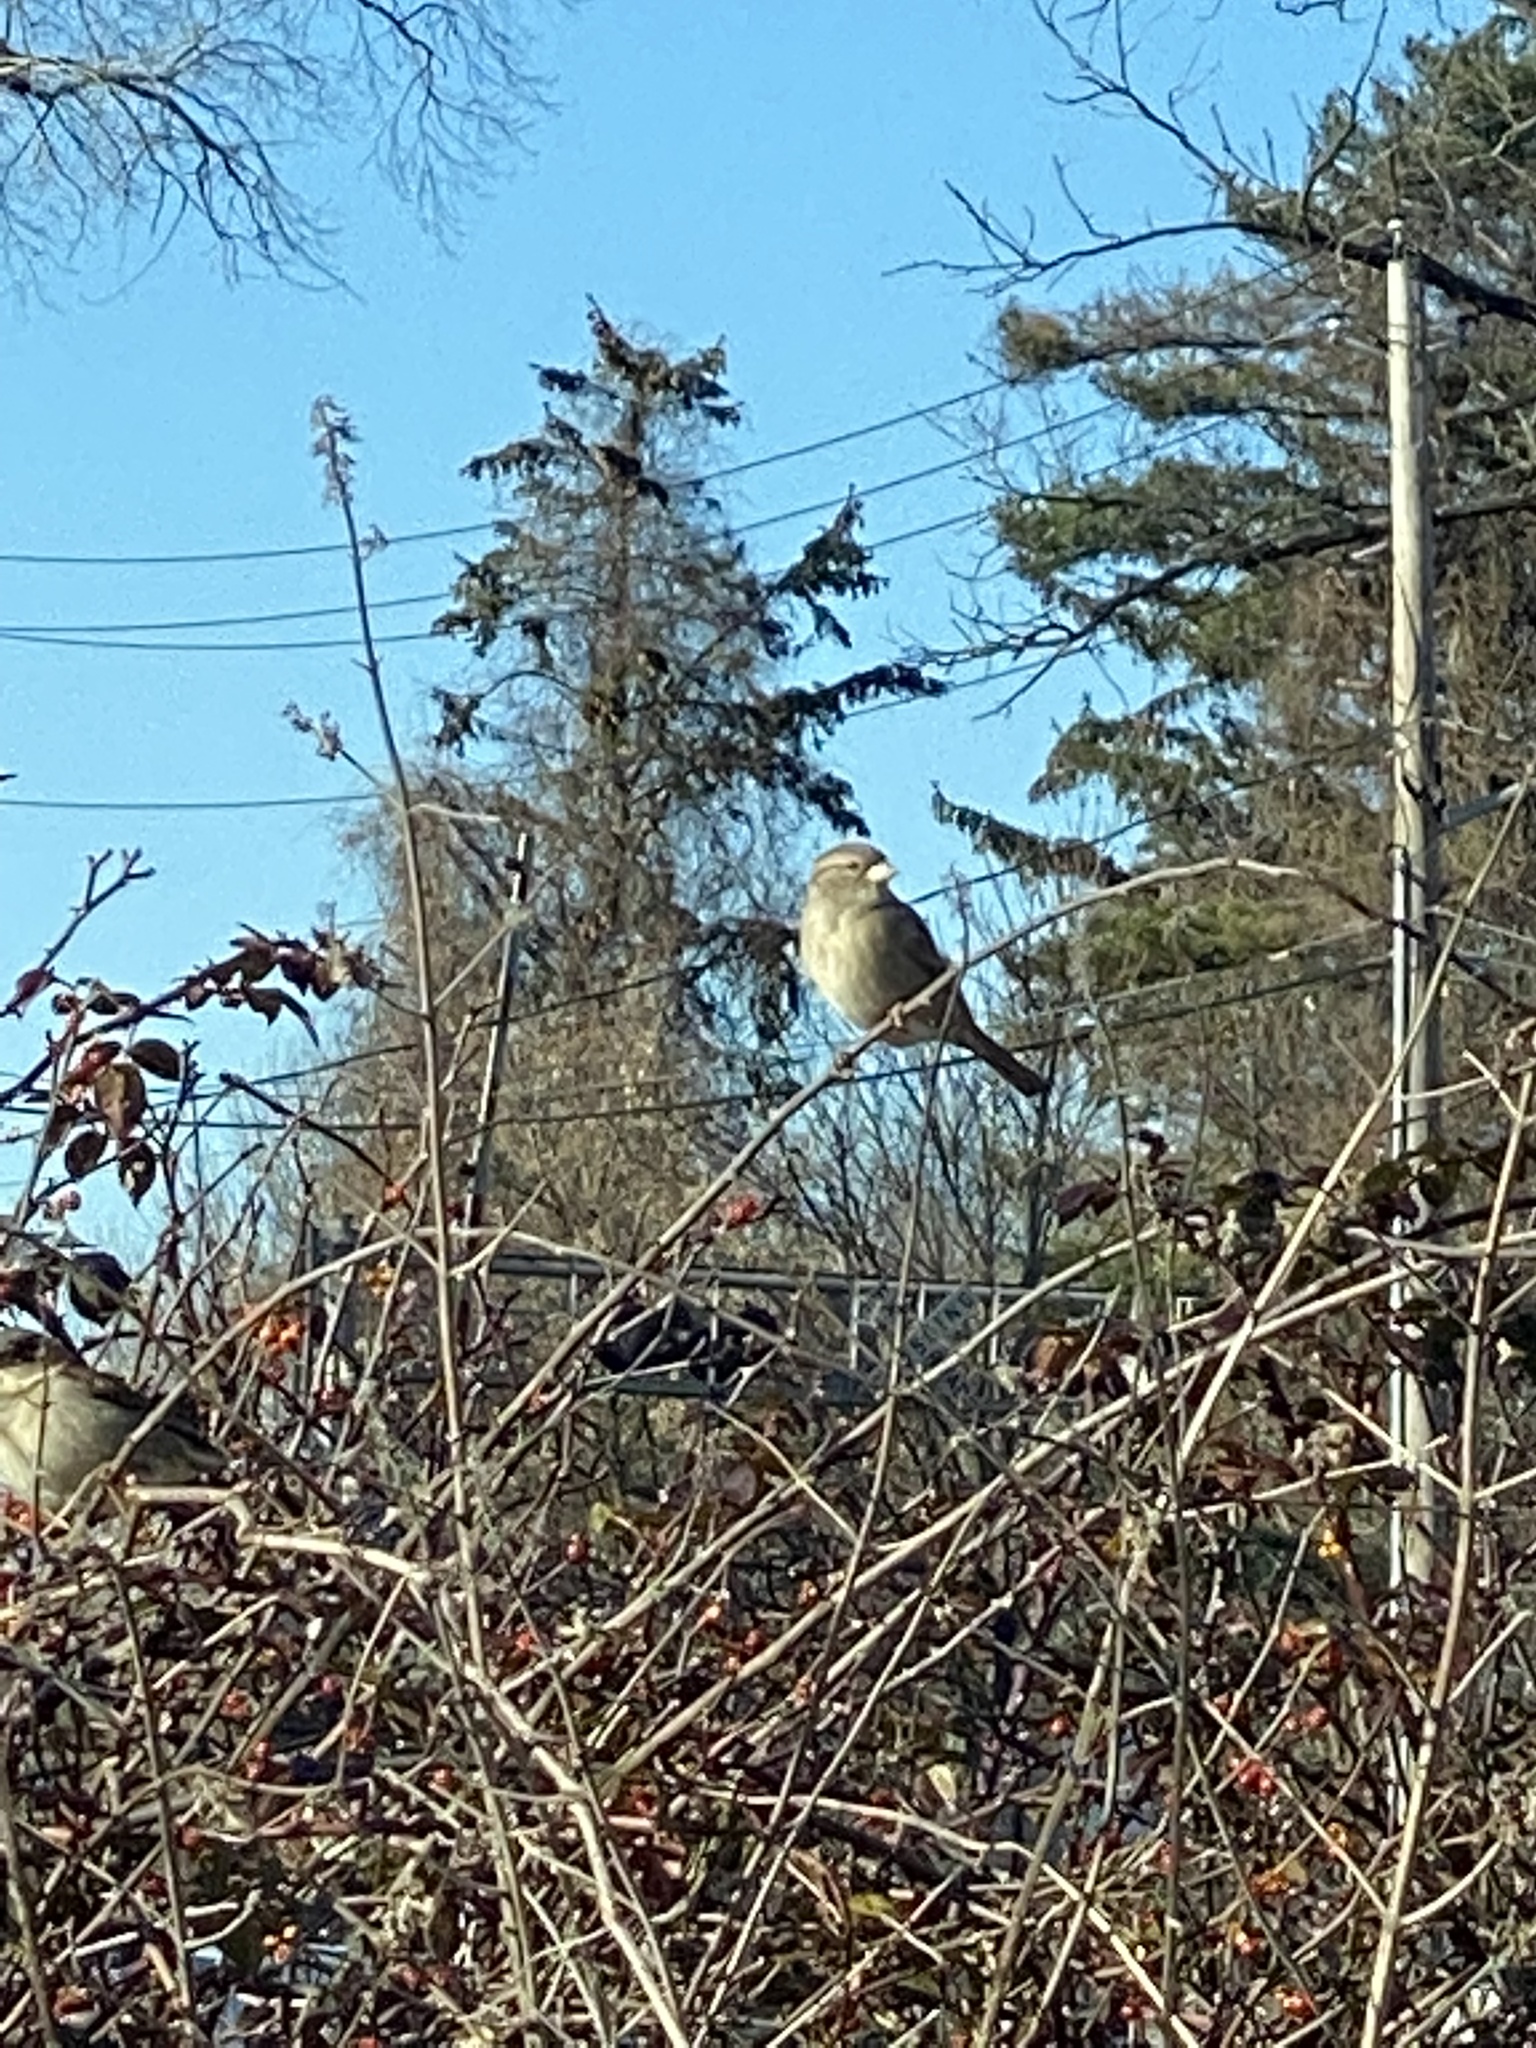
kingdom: Animalia
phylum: Chordata
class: Aves
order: Passeriformes
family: Passeridae
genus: Passer
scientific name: Passer domesticus
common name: House sparrow
